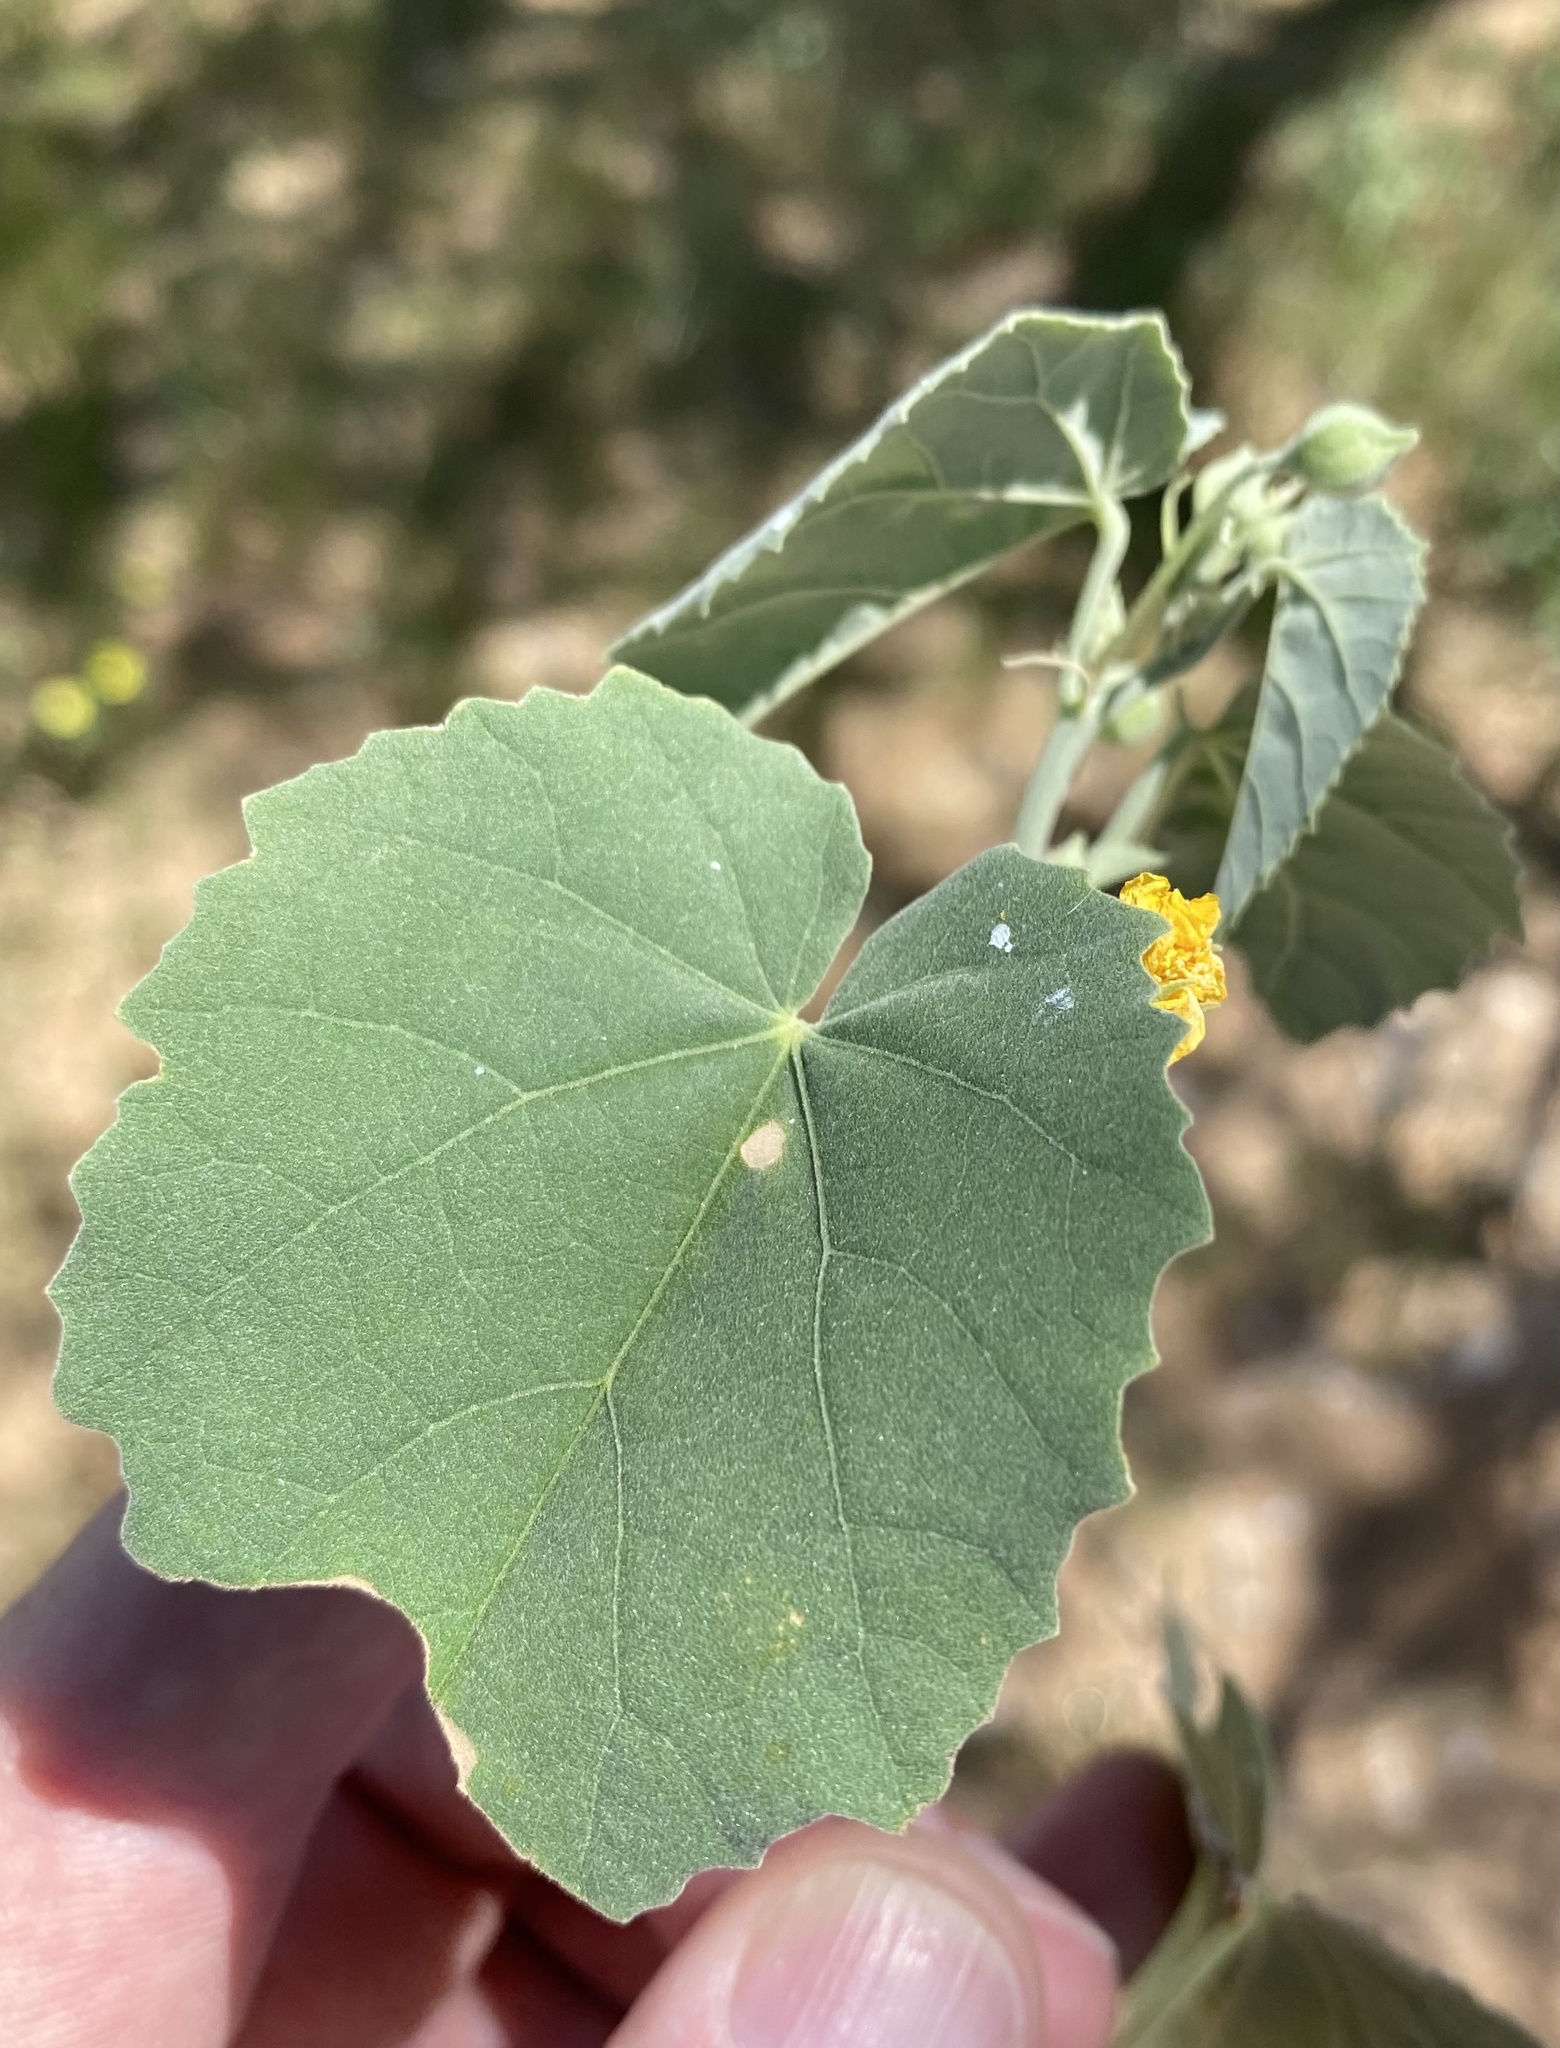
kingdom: Plantae
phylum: Tracheophyta
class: Magnoliopsida
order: Malvales
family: Malvaceae
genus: Abutilon
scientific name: Abutilon fruticosum
